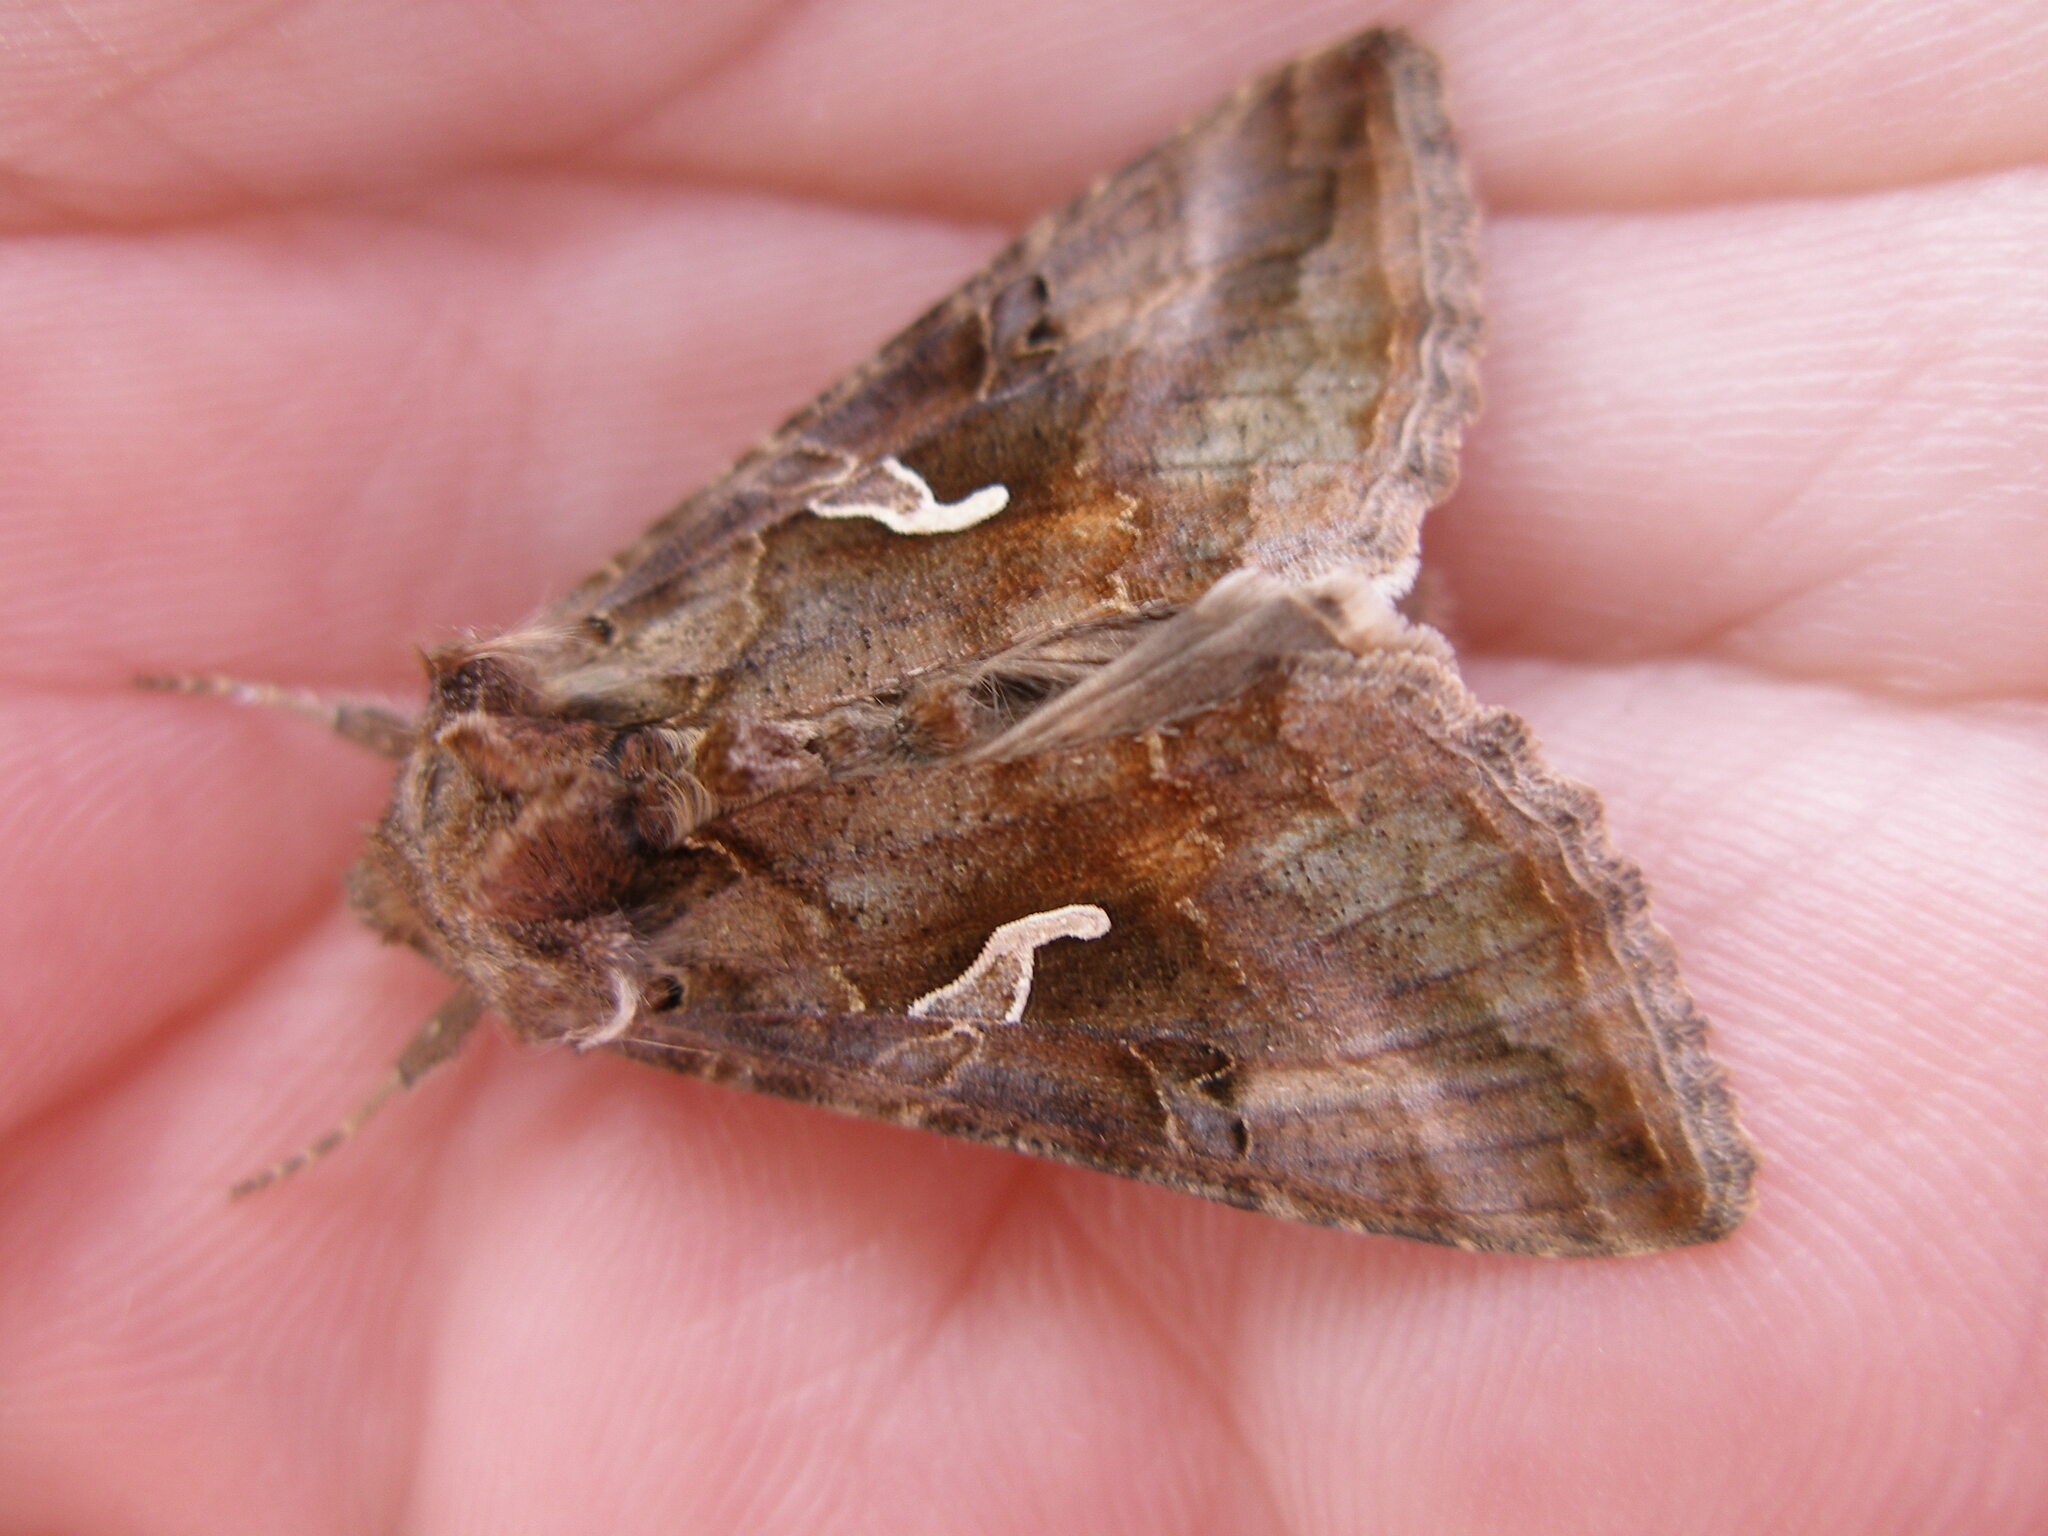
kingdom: Animalia
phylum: Arthropoda
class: Insecta
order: Lepidoptera
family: Noctuidae
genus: Autographa
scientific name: Autographa gamma
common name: Silver y
